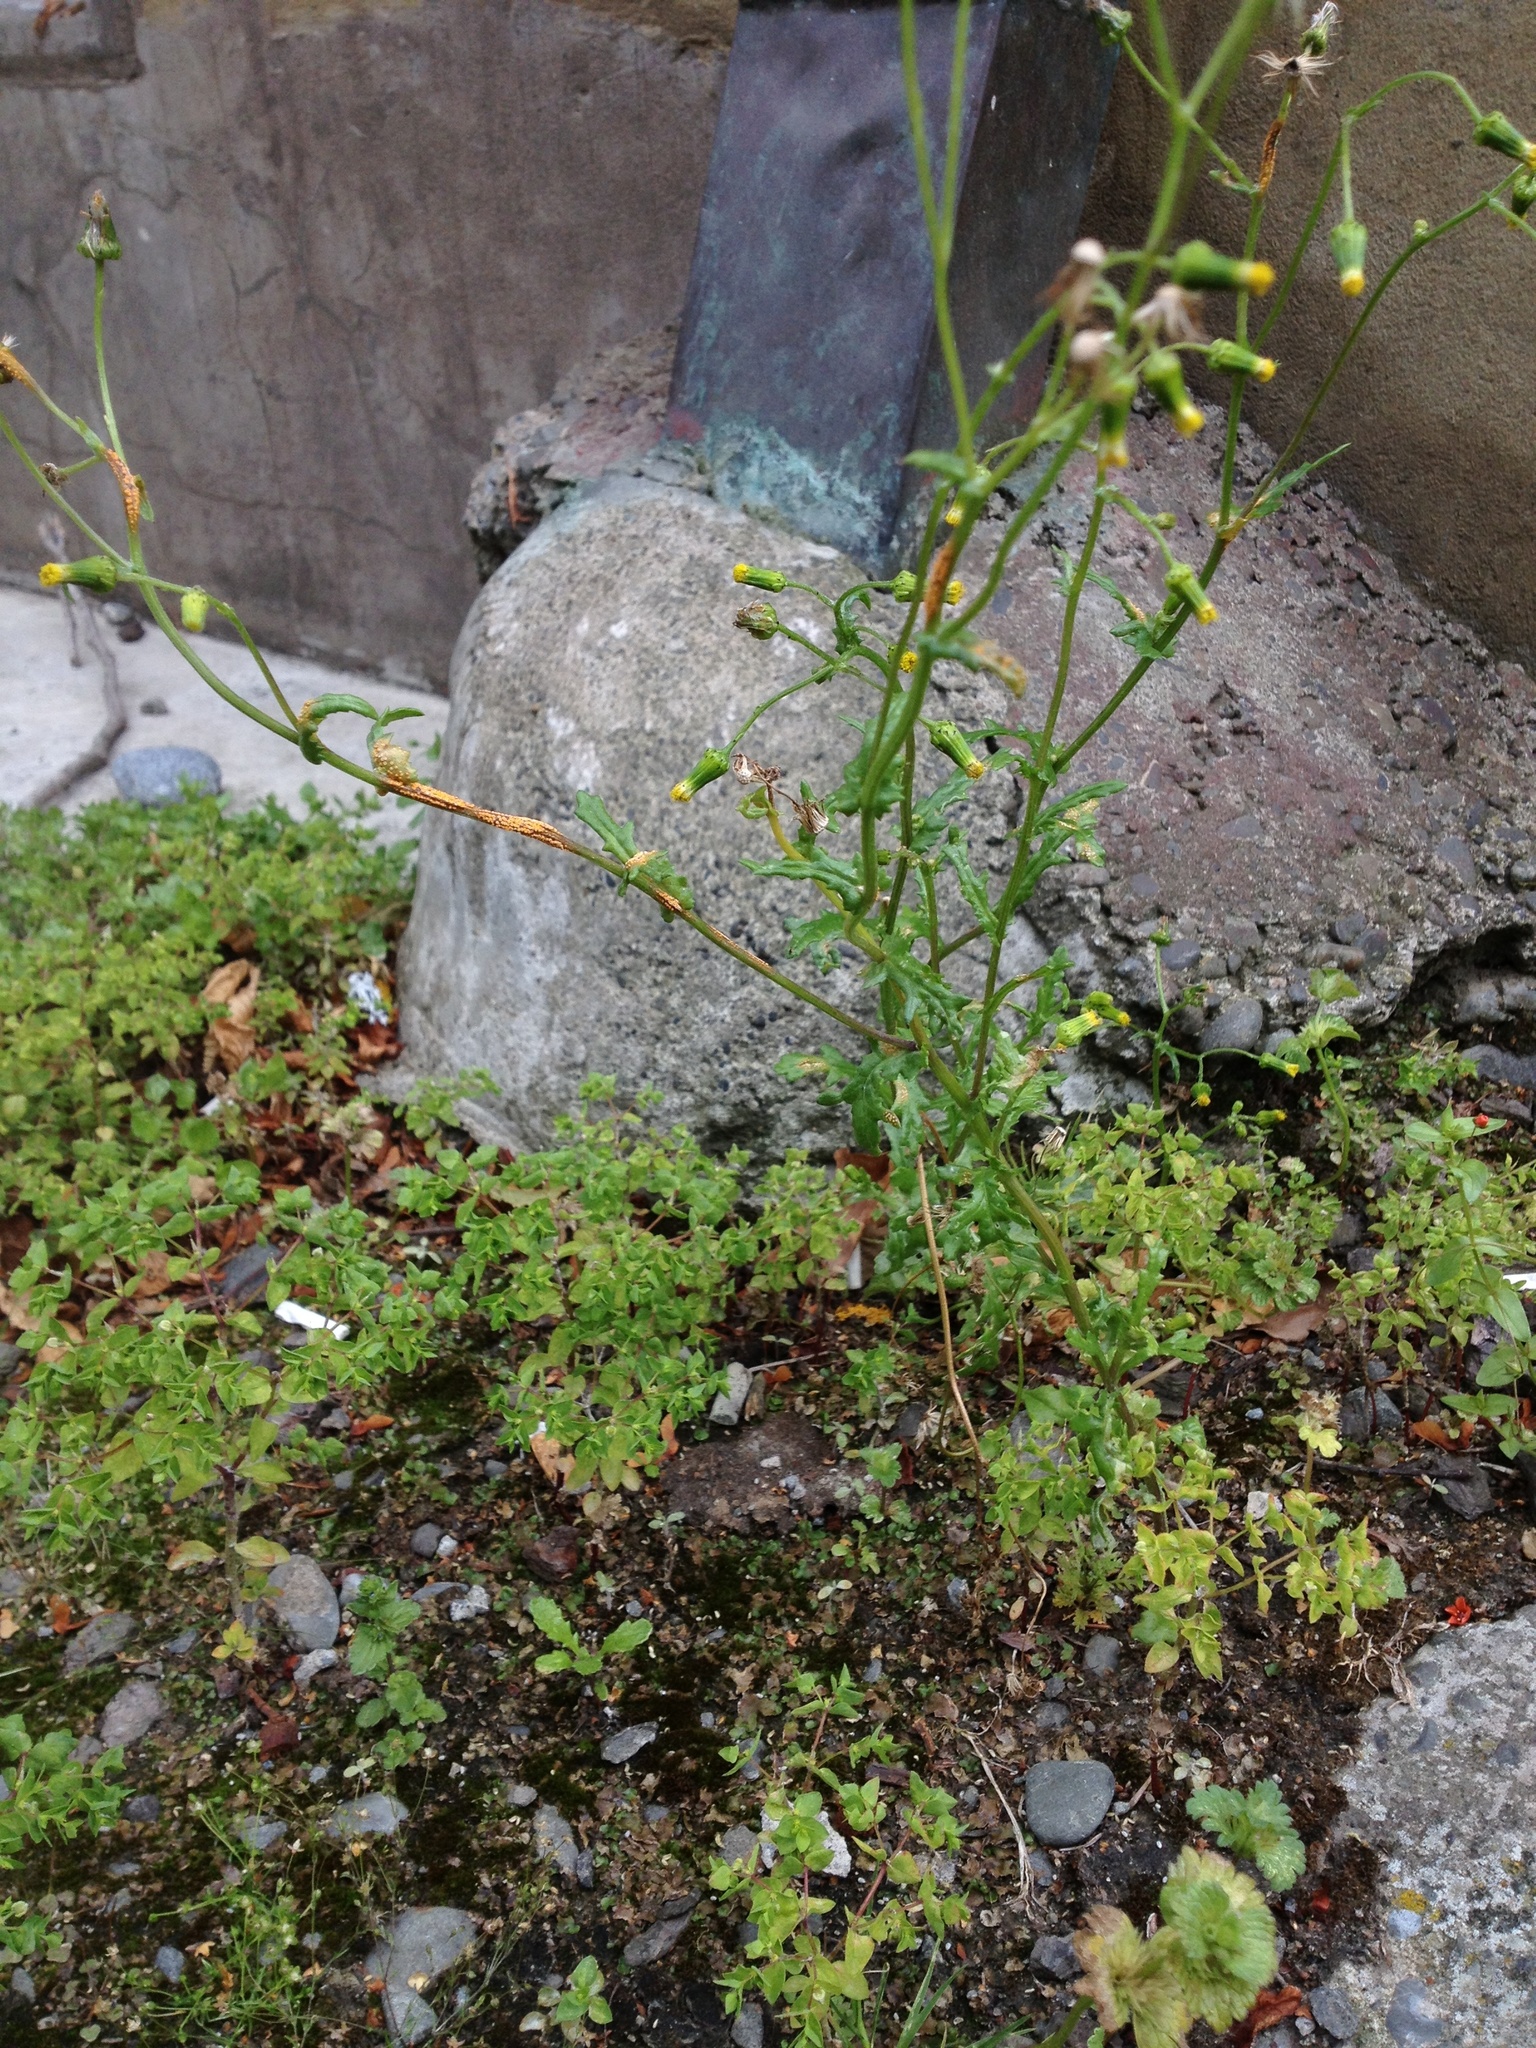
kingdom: Fungi
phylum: Basidiomycota
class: Pucciniomycetes
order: Pucciniales
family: Pucciniaceae
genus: Puccinia
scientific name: Puccinia lagenophorae
